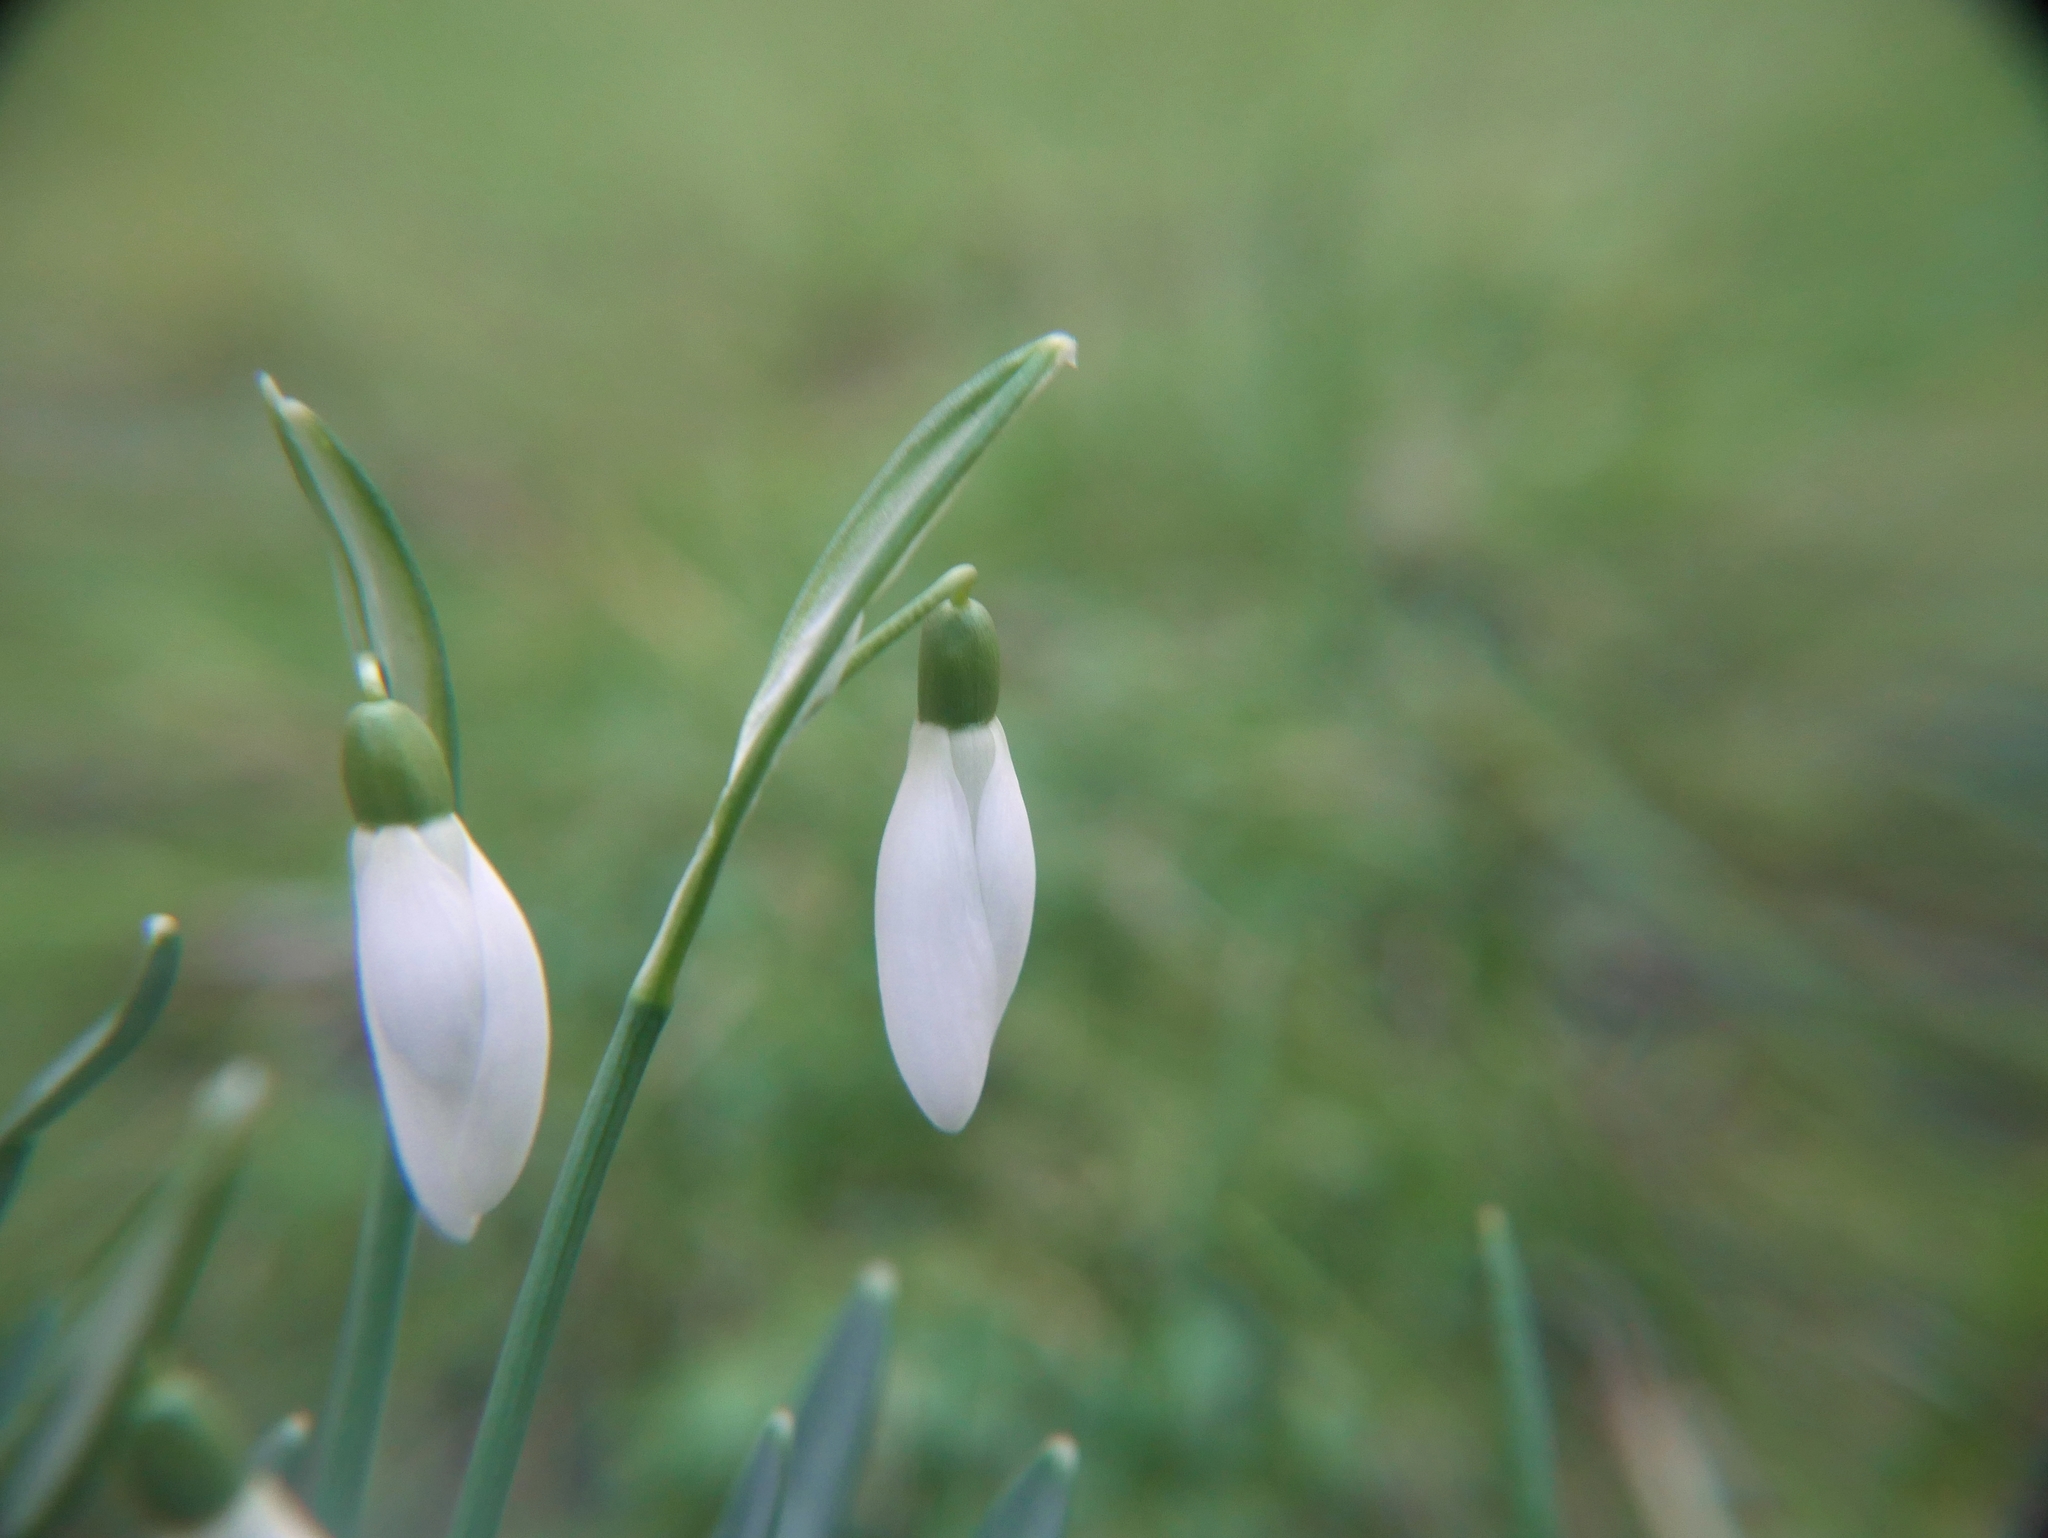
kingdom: Plantae
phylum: Tracheophyta
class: Liliopsida
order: Asparagales
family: Amaryllidaceae
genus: Galanthus
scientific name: Galanthus nivalis
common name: Snowdrop
